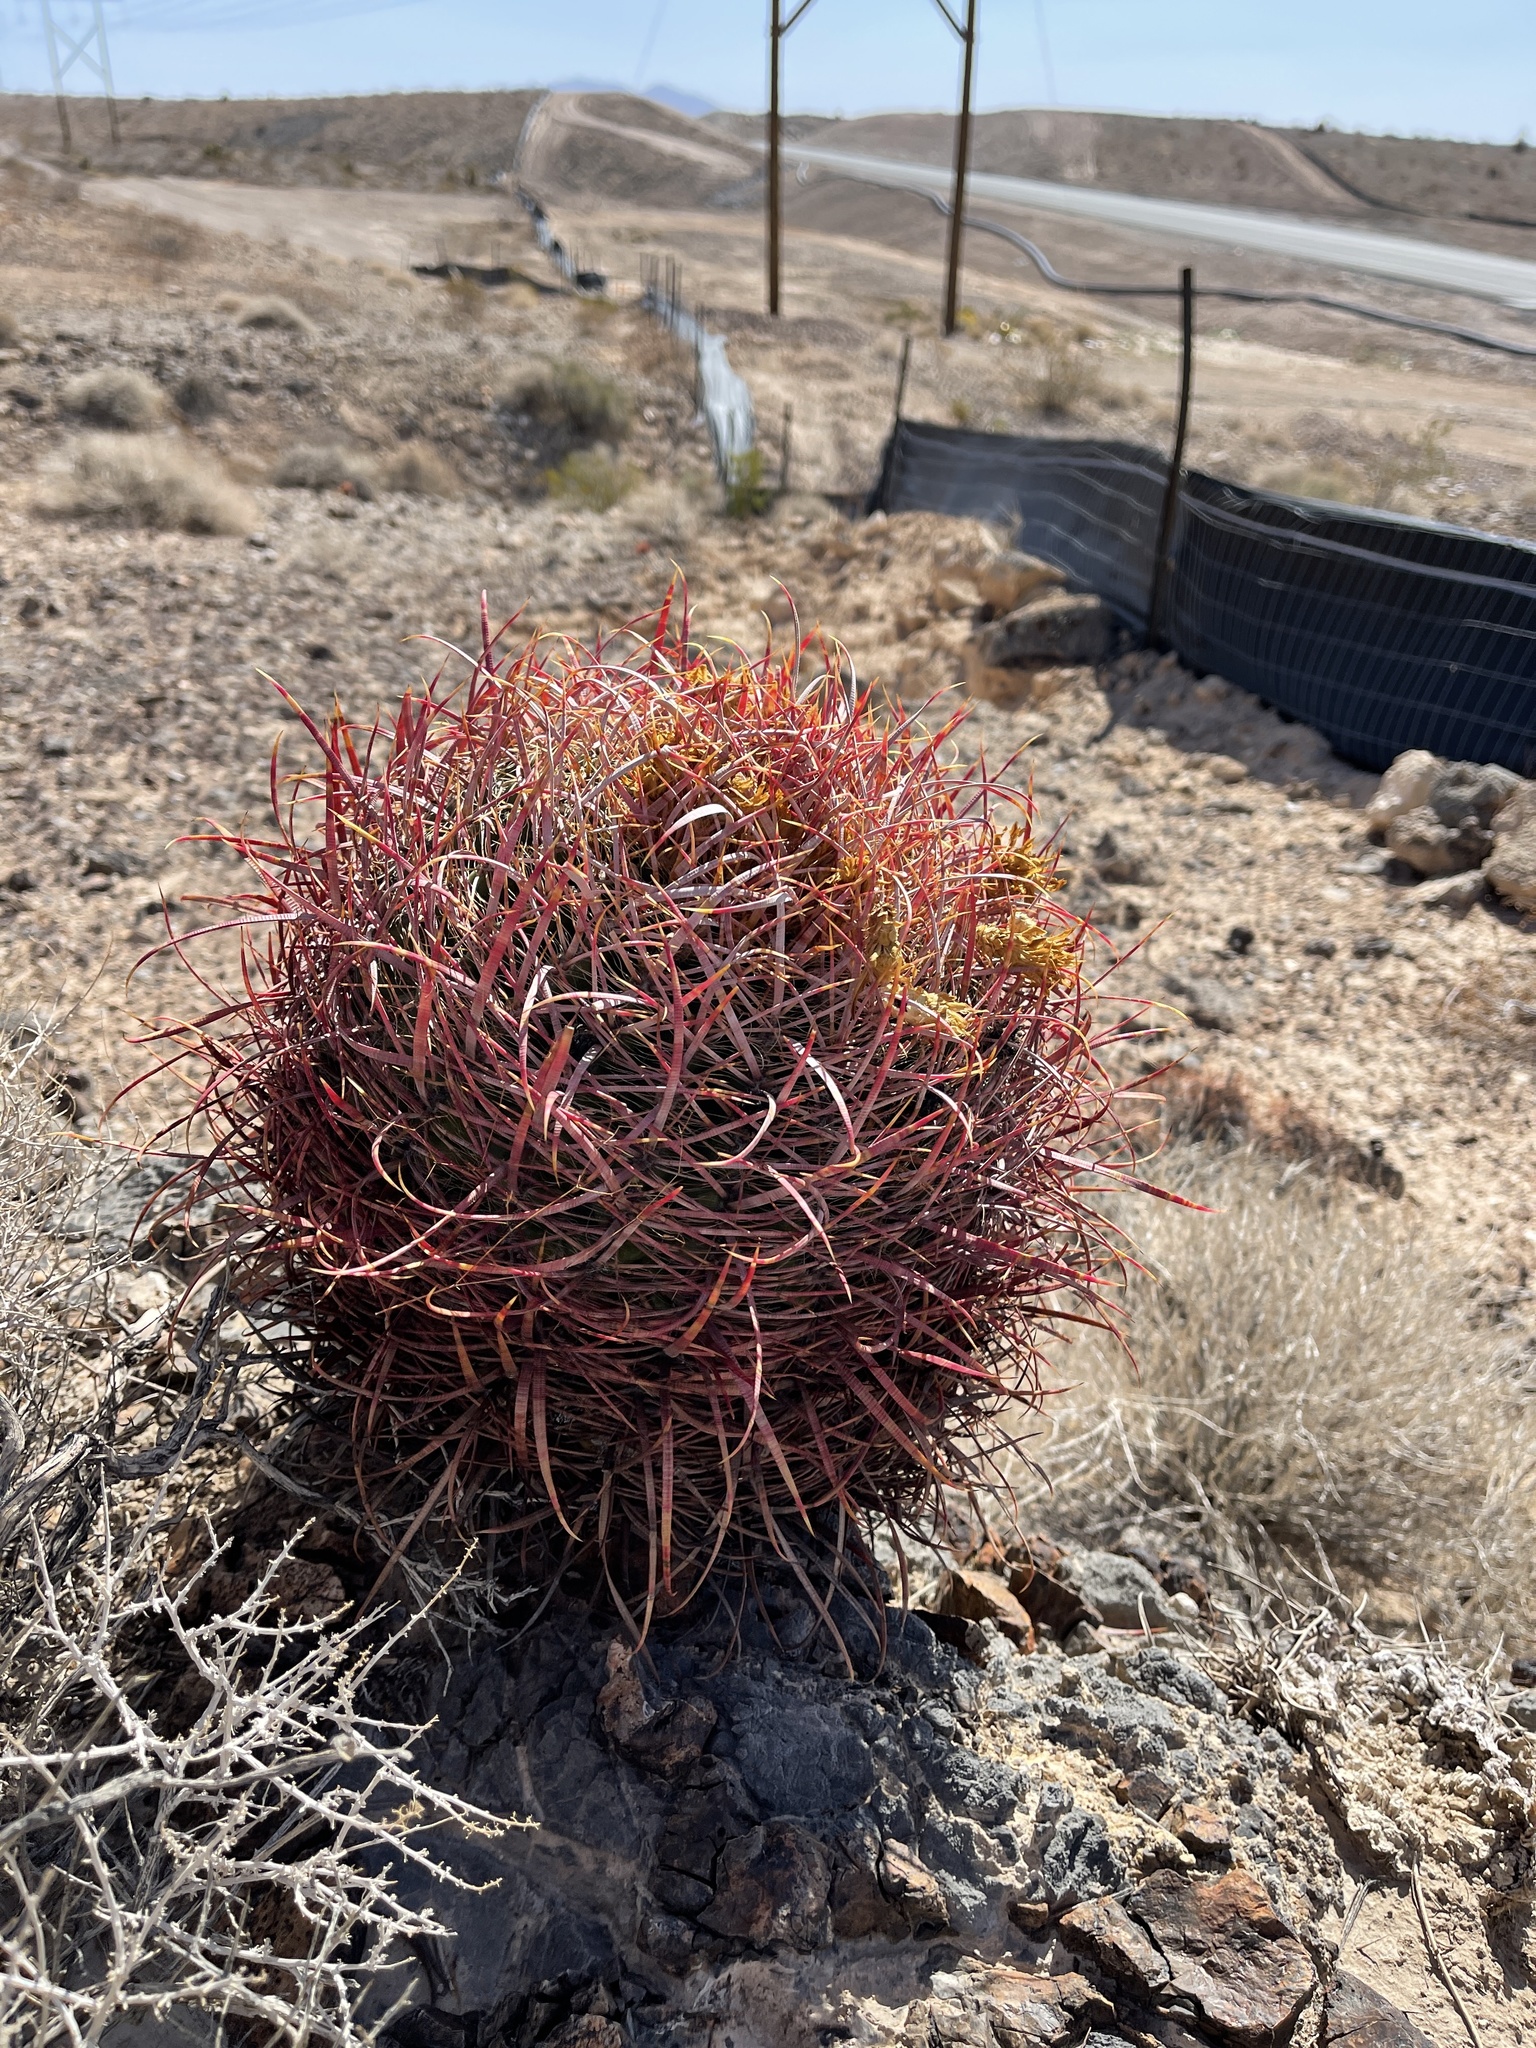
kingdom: Plantae
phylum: Tracheophyta
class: Magnoliopsida
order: Caryophyllales
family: Cactaceae
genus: Ferocactus
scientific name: Ferocactus cylindraceus
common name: California barrel cactus
